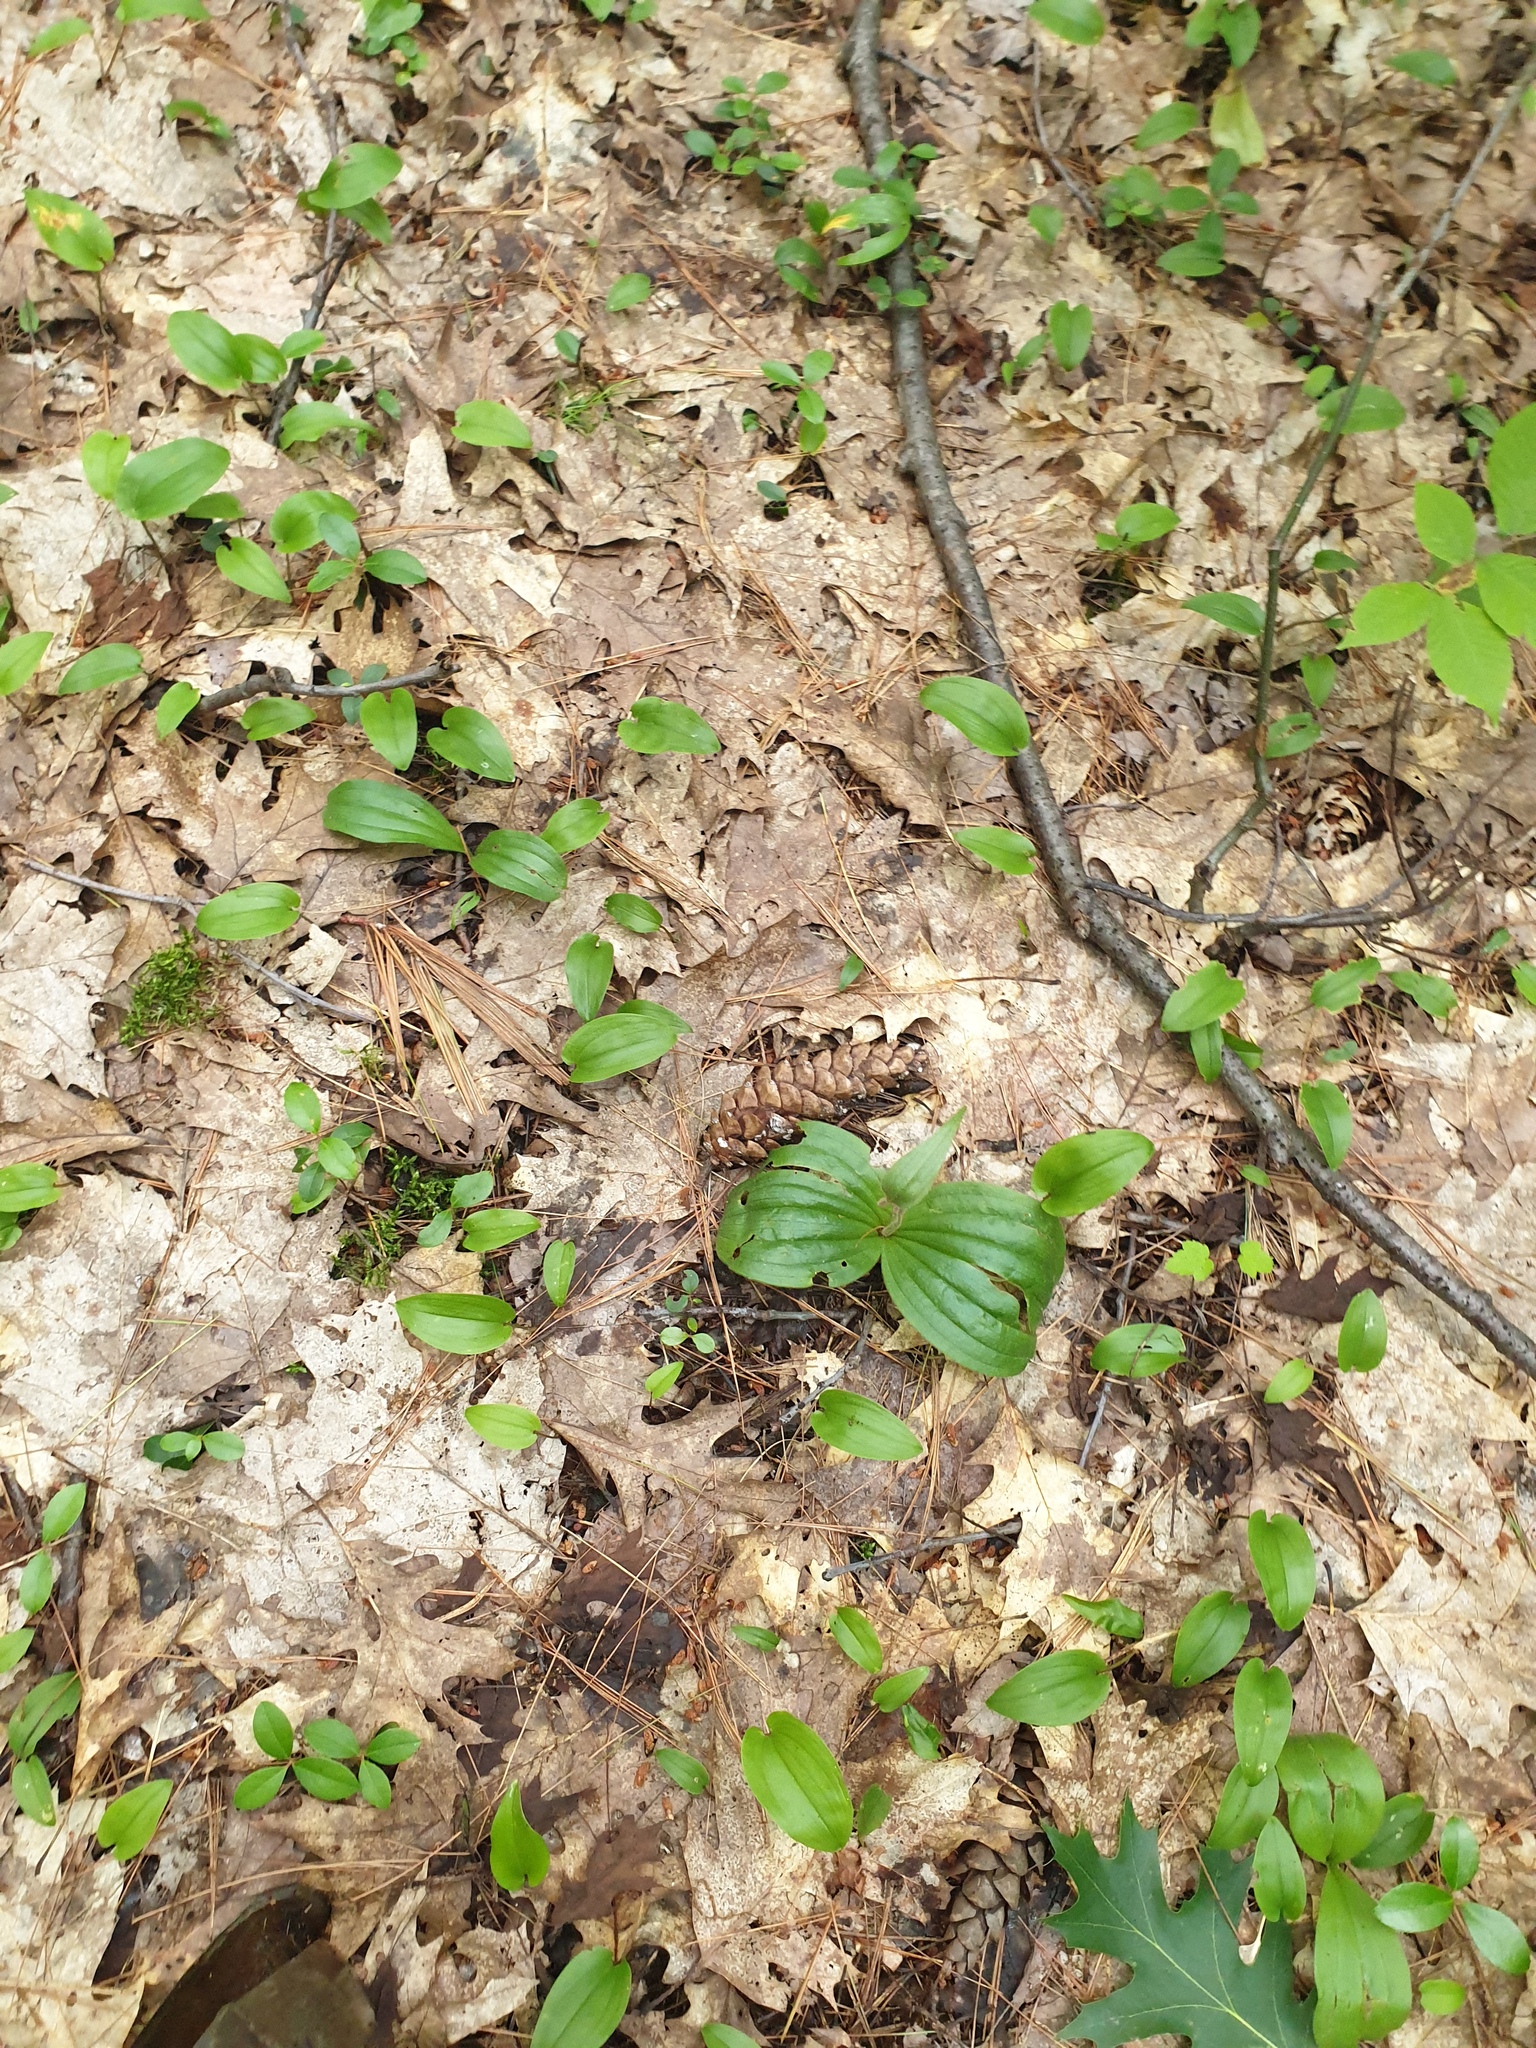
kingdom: Plantae
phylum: Tracheophyta
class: Liliopsida
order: Asparagales
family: Orchidaceae
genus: Cypripedium
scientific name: Cypripedium acaule
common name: Pink lady's-slipper
